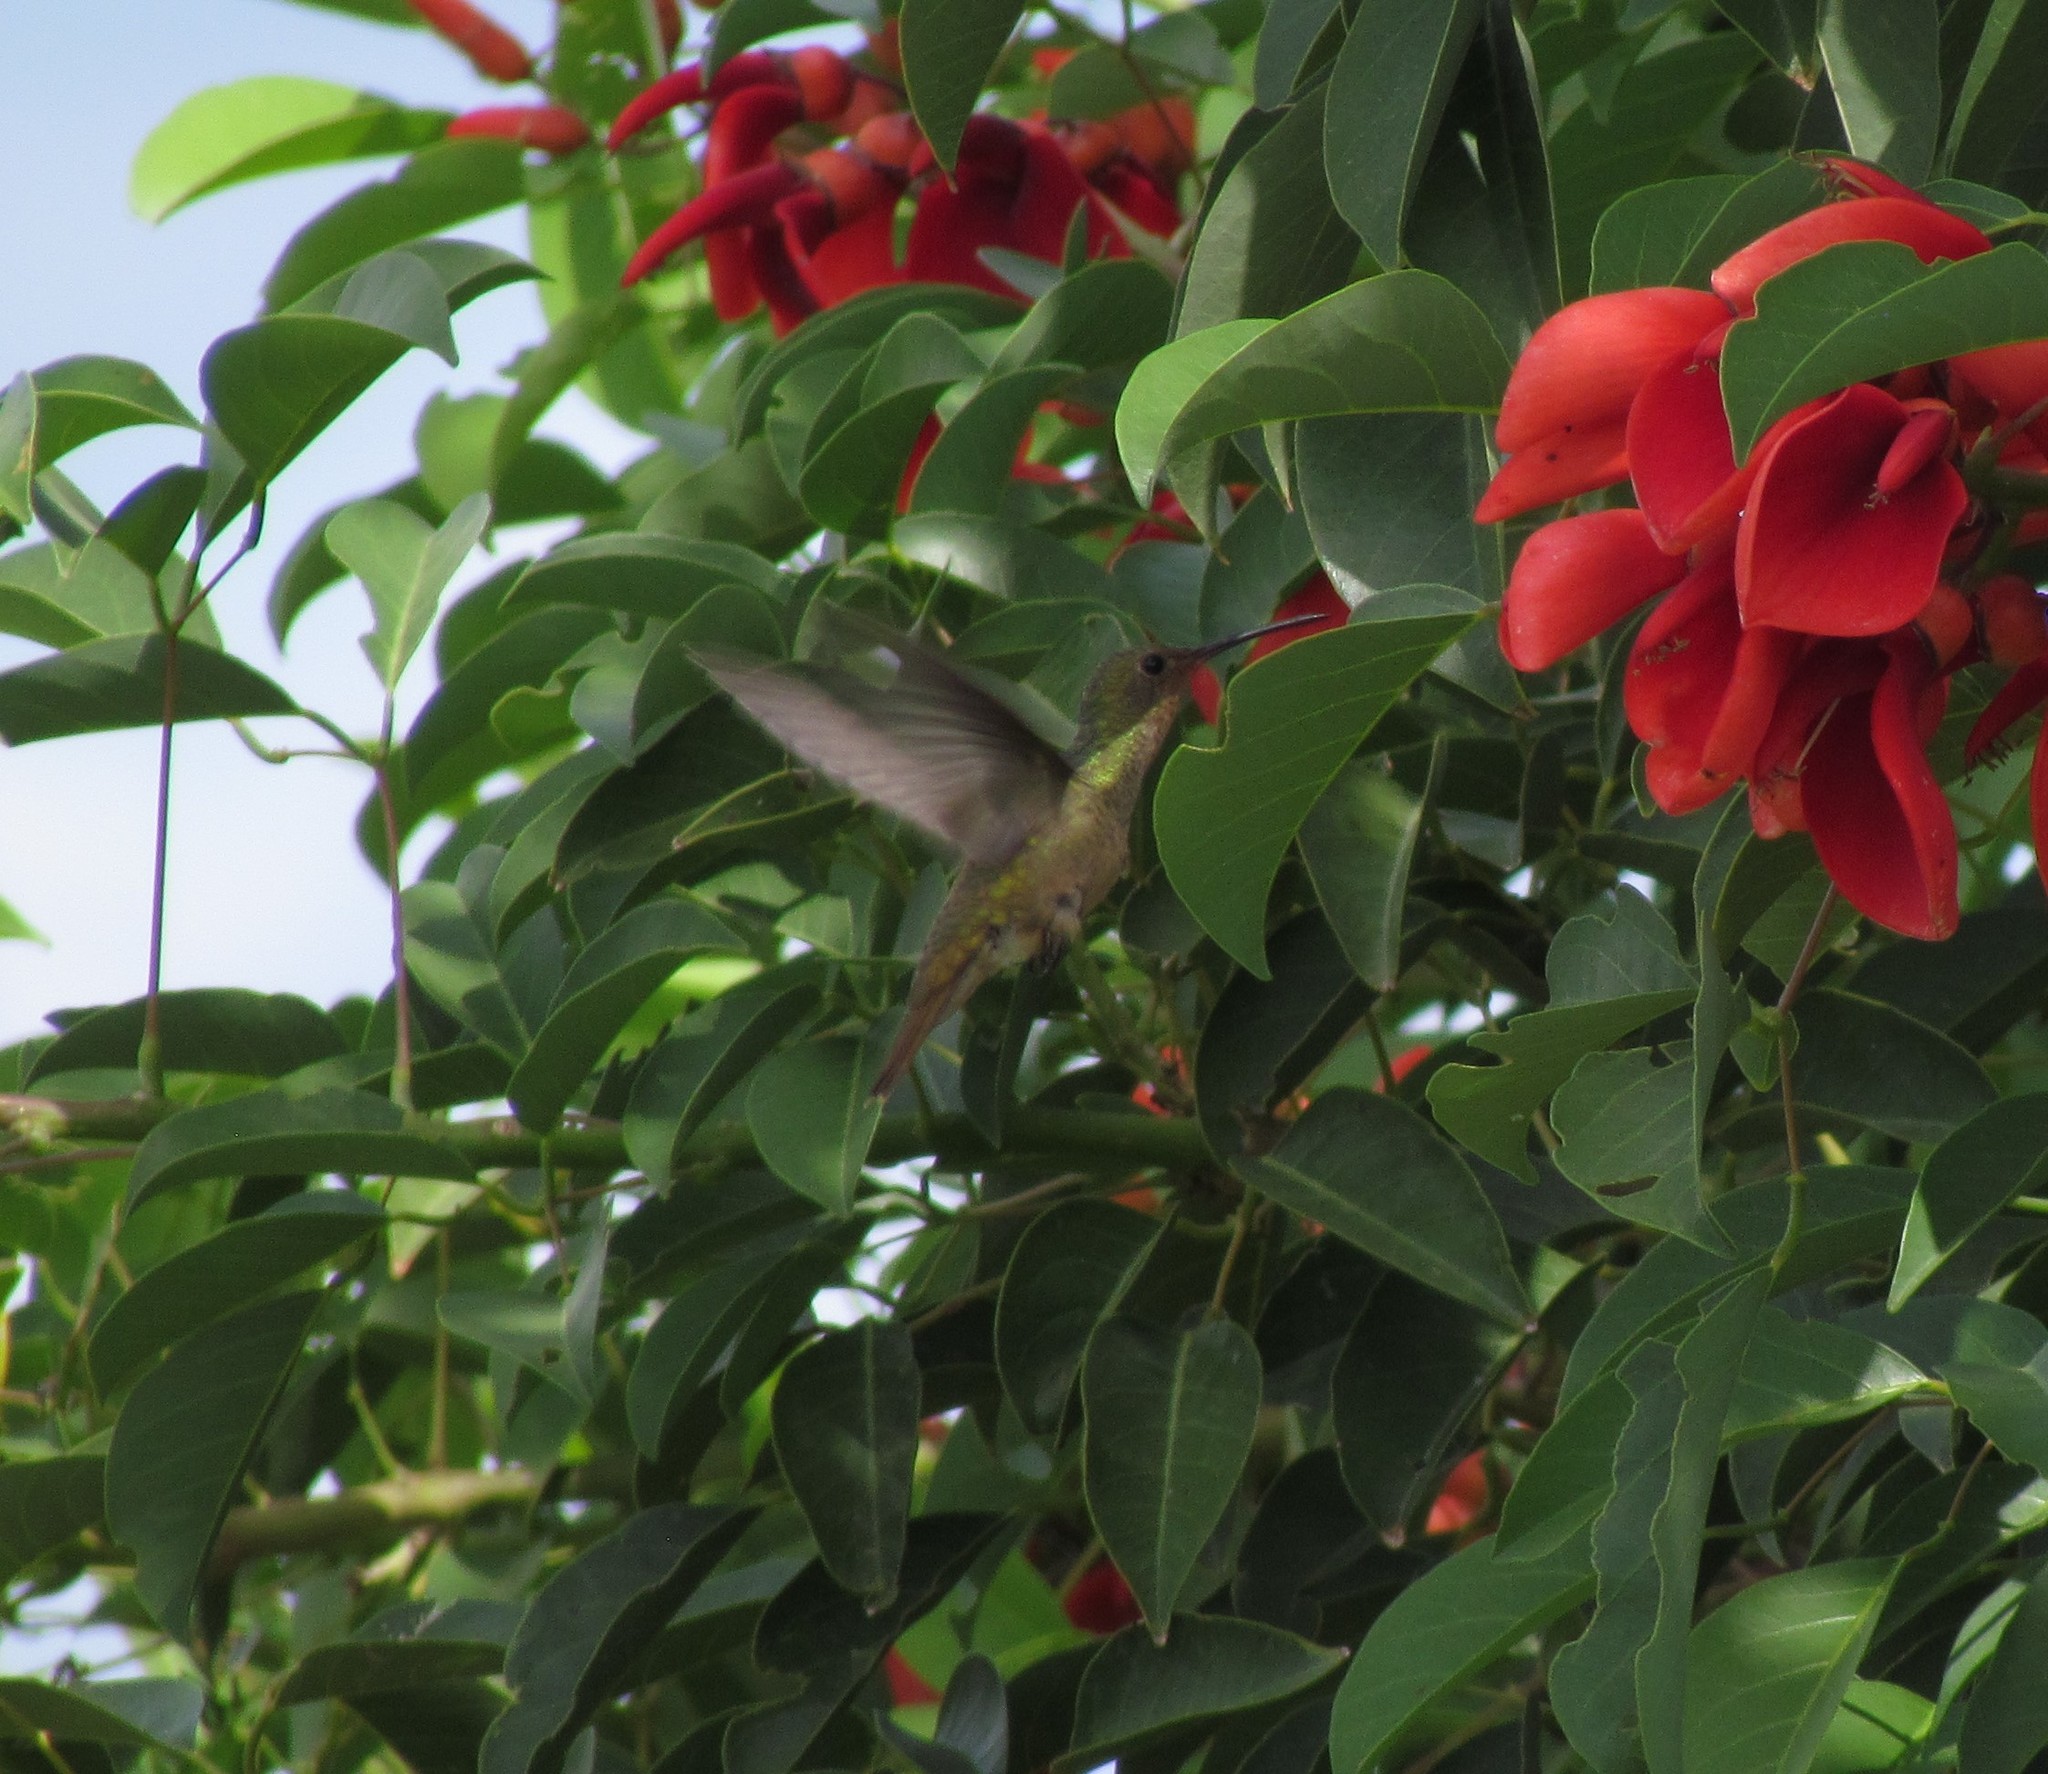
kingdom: Animalia
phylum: Chordata
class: Aves
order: Apodiformes
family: Trochilidae
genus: Hylocharis
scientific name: Hylocharis chrysura
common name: Gilded sapphire
